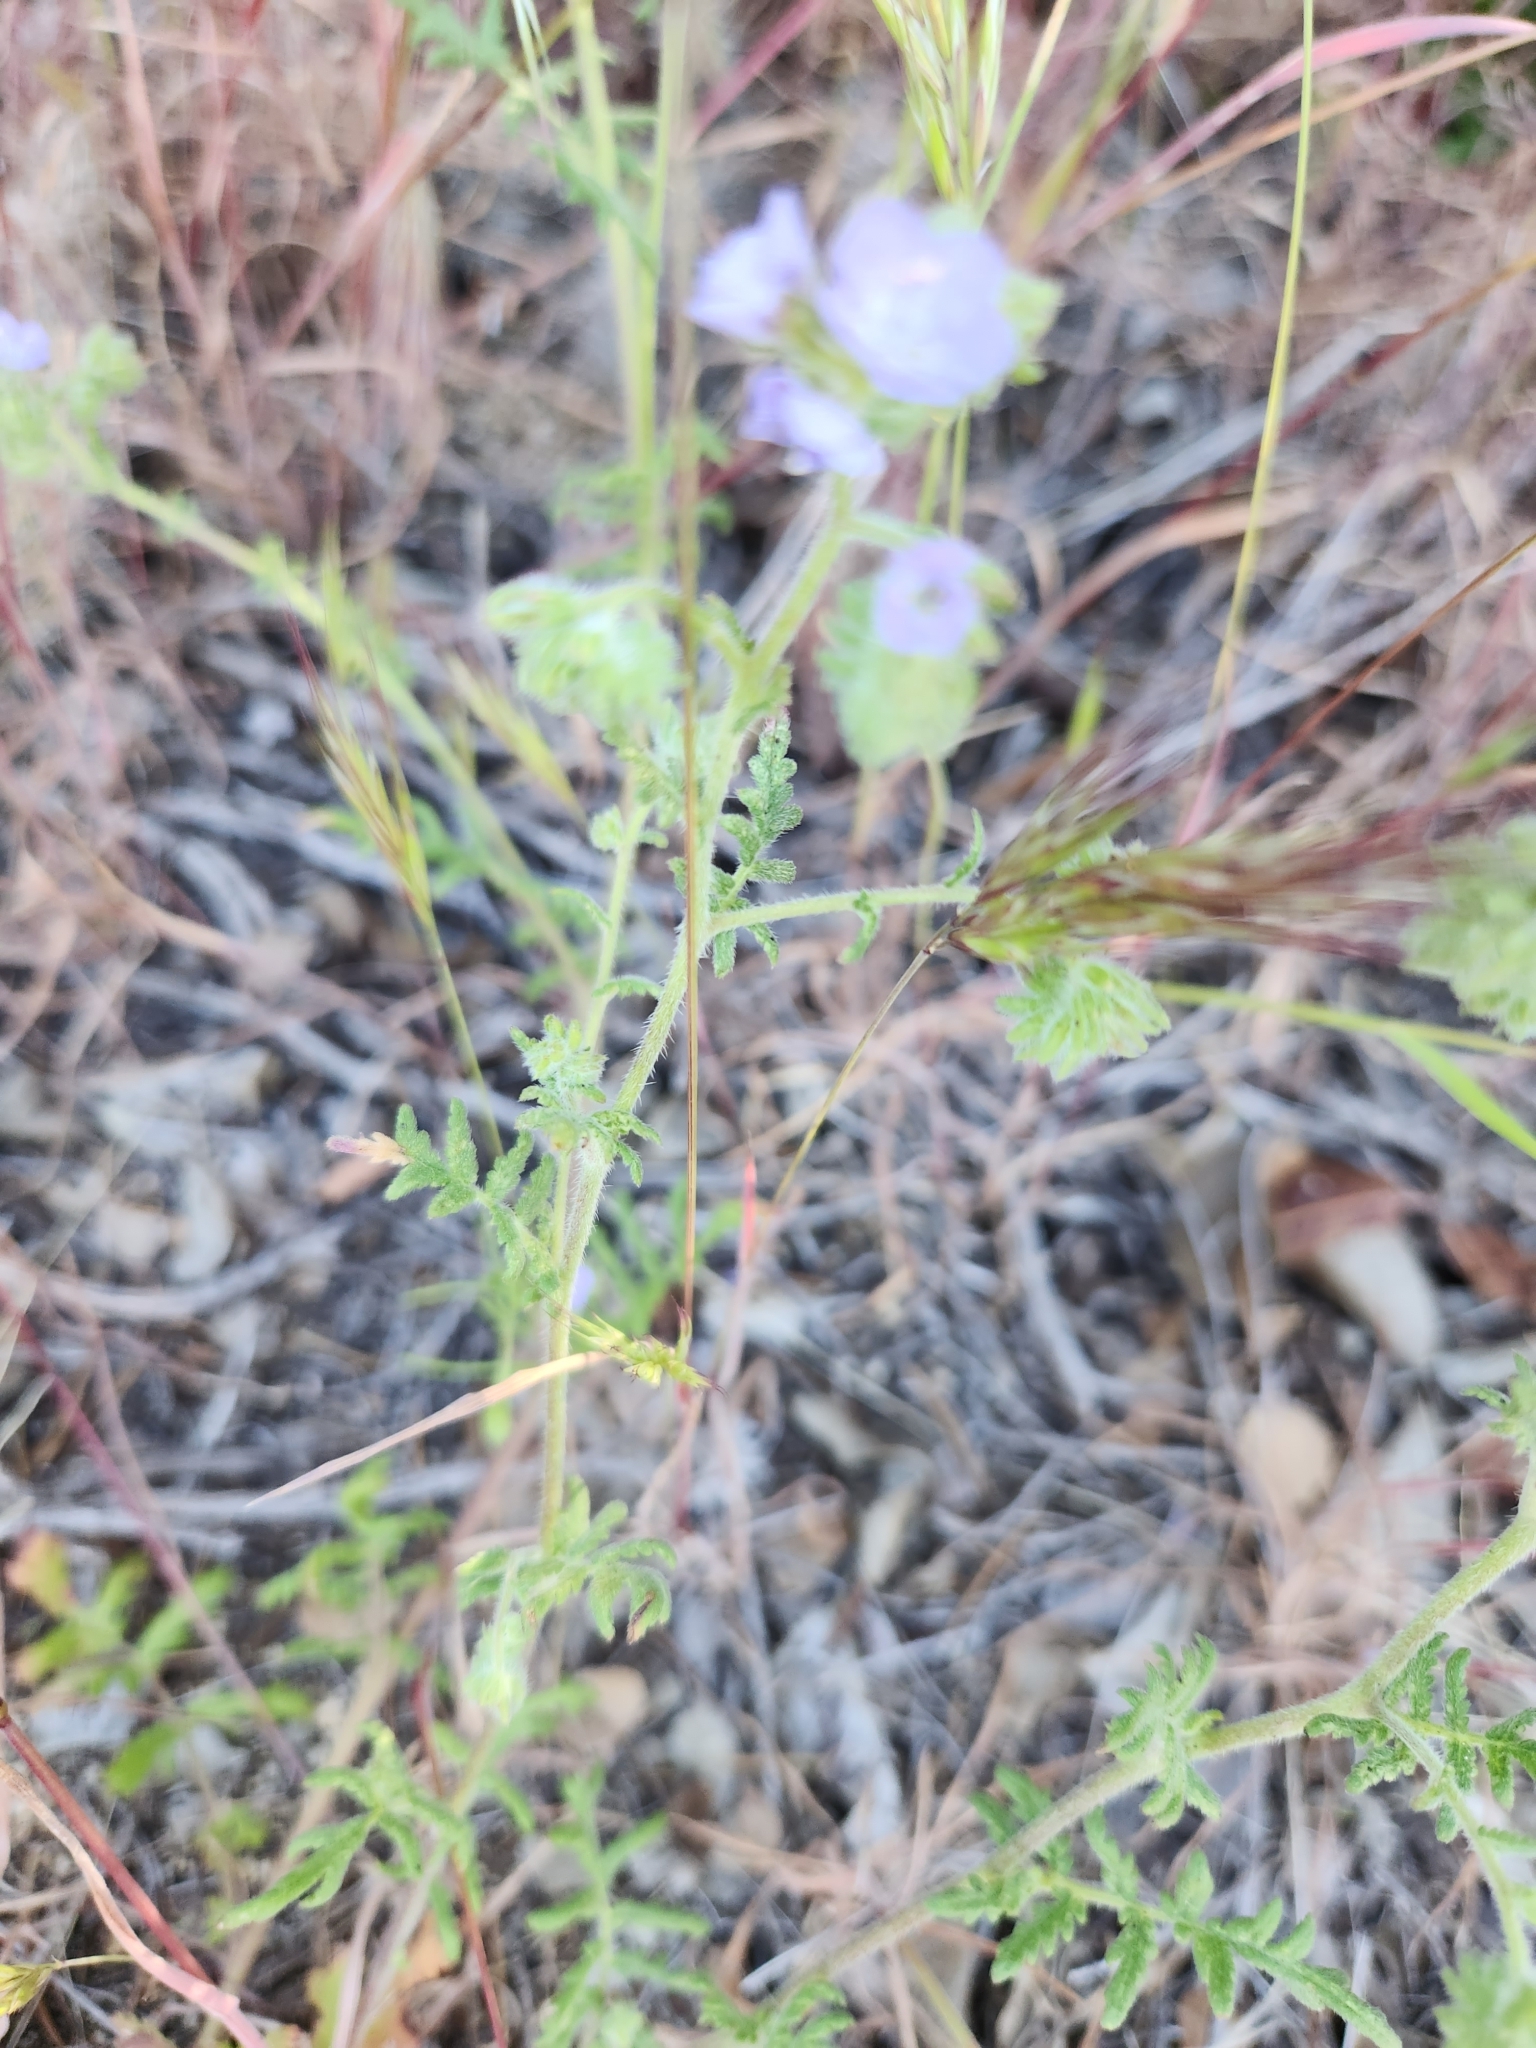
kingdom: Plantae
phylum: Tracheophyta
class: Magnoliopsida
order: Boraginales
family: Hydrophyllaceae
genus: Phacelia
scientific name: Phacelia distans
